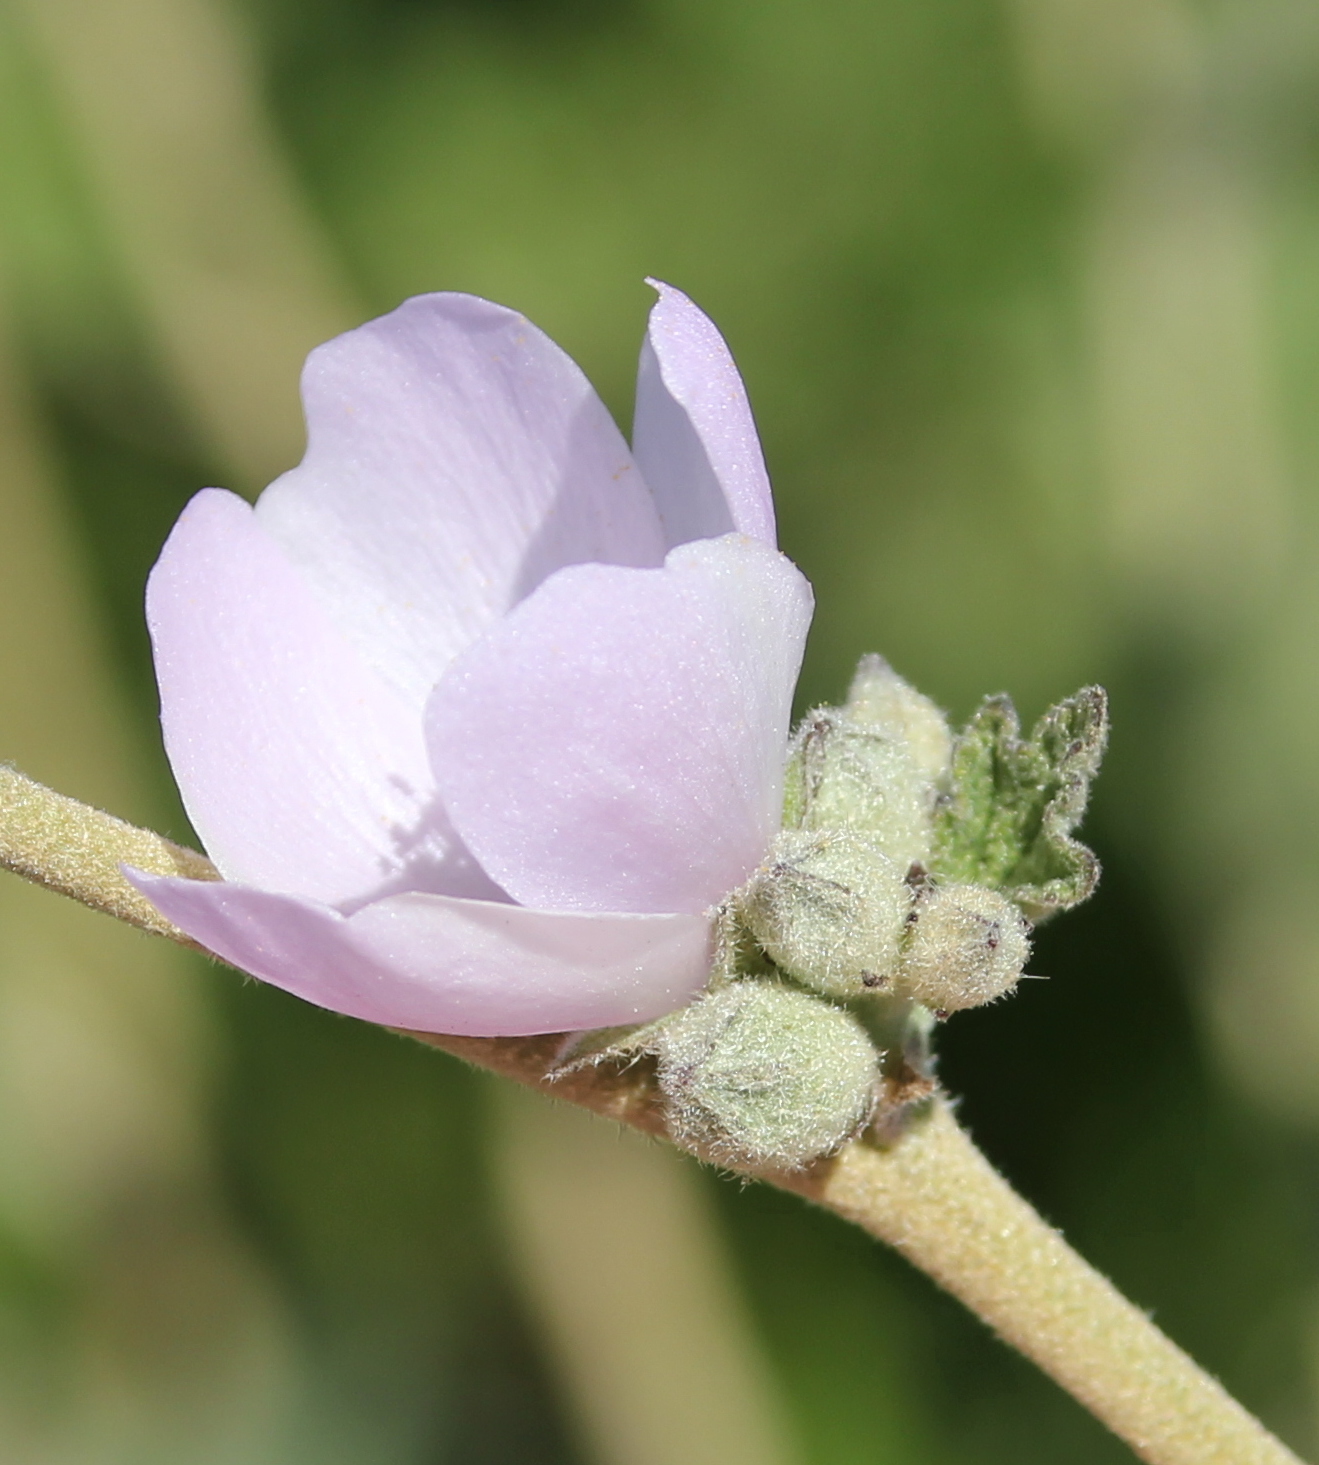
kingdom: Plantae
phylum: Tracheophyta
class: Magnoliopsida
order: Malvales
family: Malvaceae
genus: Malacothamnus
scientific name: Malacothamnus fasciculatus
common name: Sant cruz island bush-mallow
